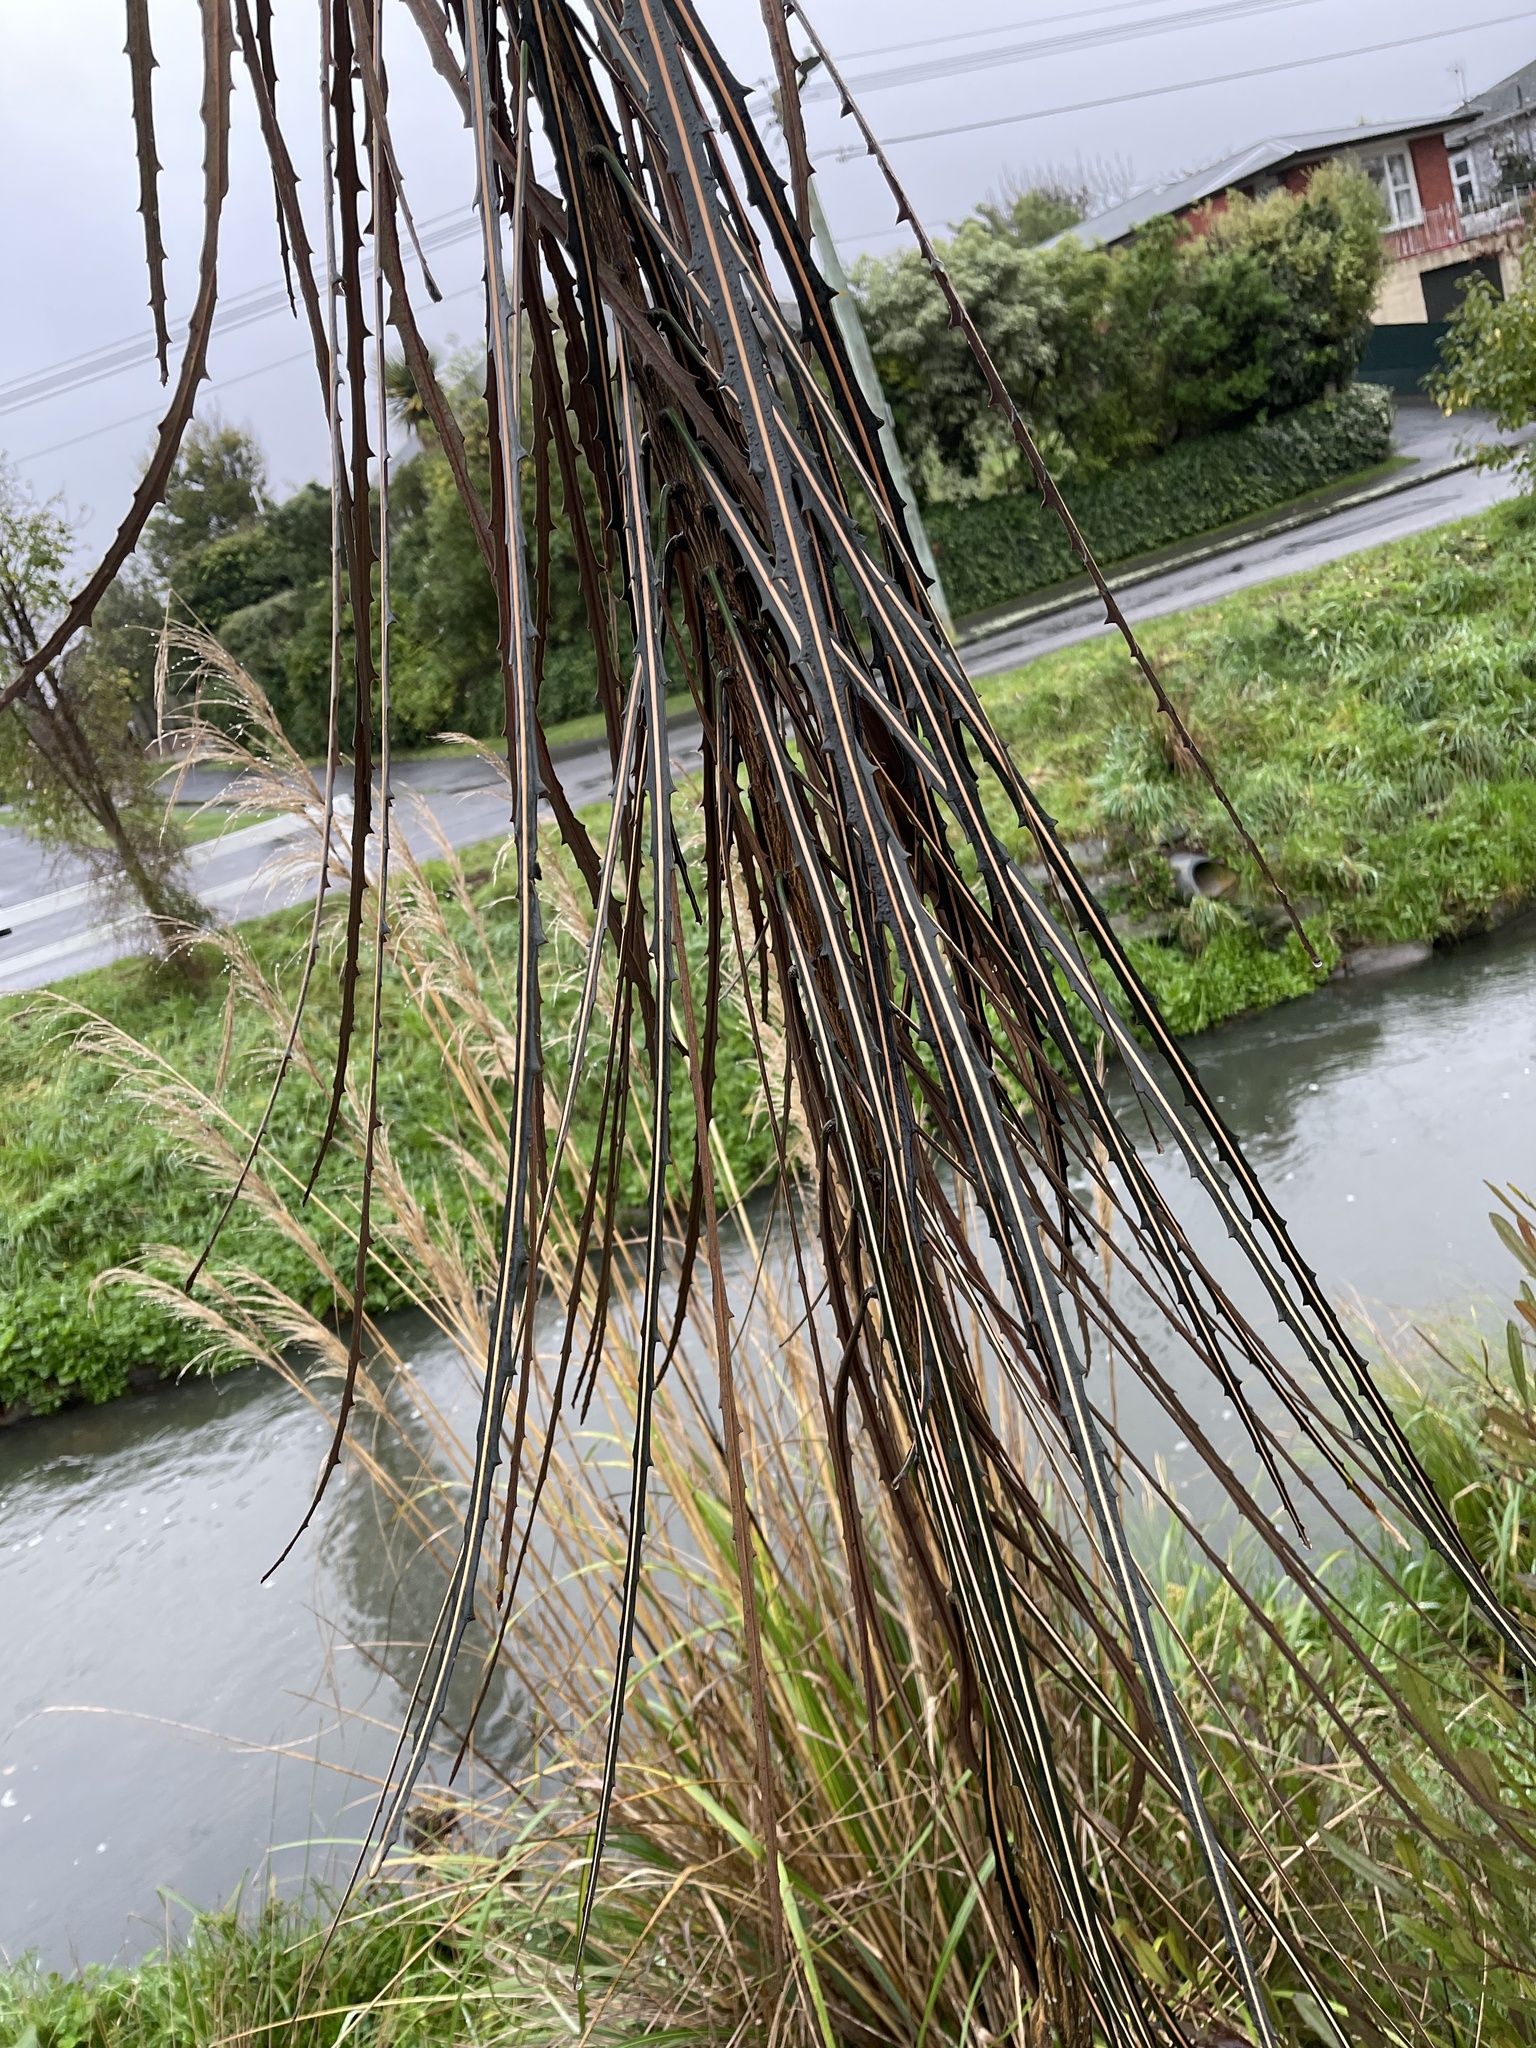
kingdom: Plantae
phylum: Tracheophyta
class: Magnoliopsida
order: Apiales
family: Araliaceae
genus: Pseudopanax
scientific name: Pseudopanax crassifolius
